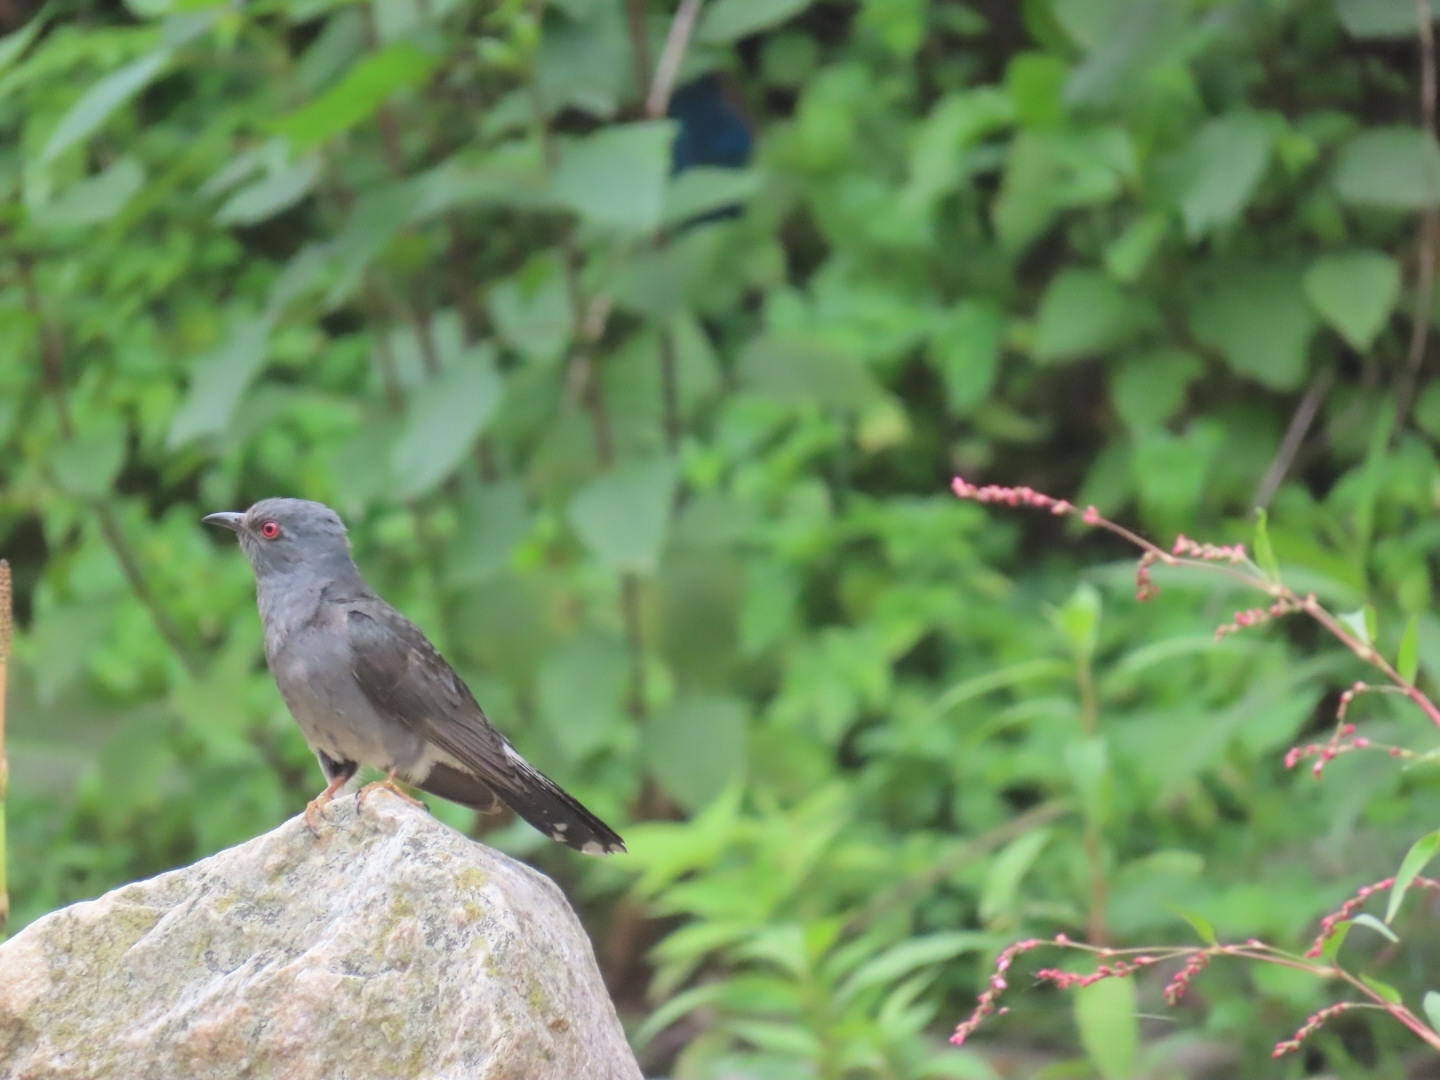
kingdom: Animalia
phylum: Chordata
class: Aves
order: Cuculiformes
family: Cuculidae
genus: Cacomantis
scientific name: Cacomantis passerinus
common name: Grey-bellied cuckoo
